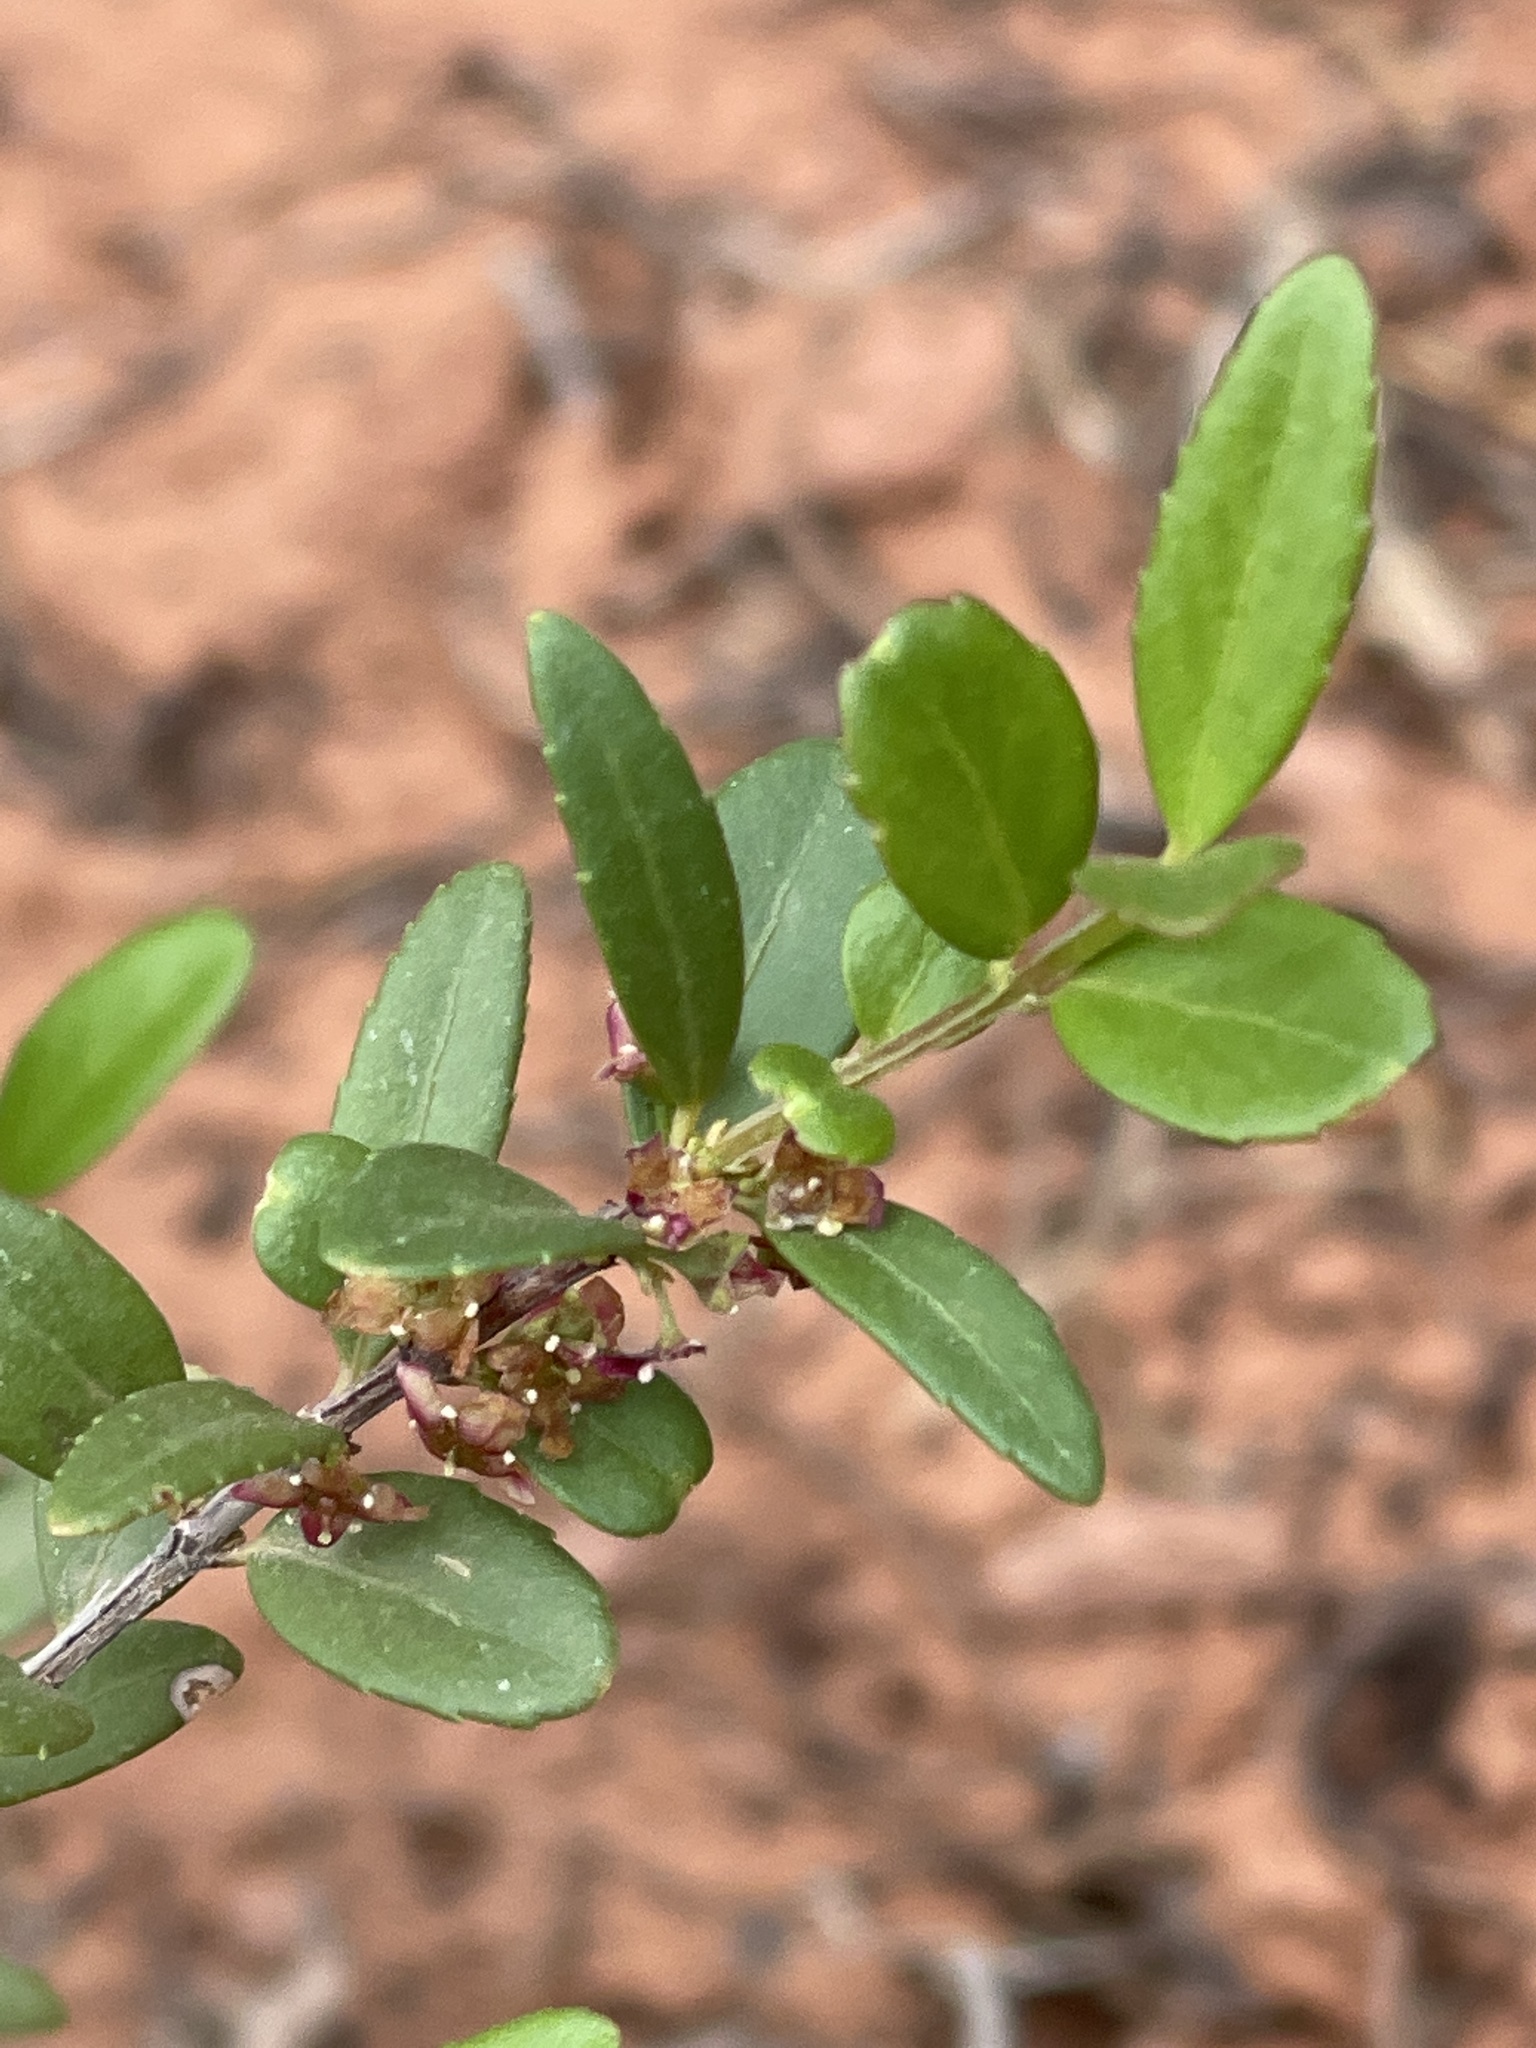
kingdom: Plantae
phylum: Tracheophyta
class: Magnoliopsida
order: Celastrales
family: Celastraceae
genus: Paxistima
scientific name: Paxistima myrsinites
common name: Mountain-lover
